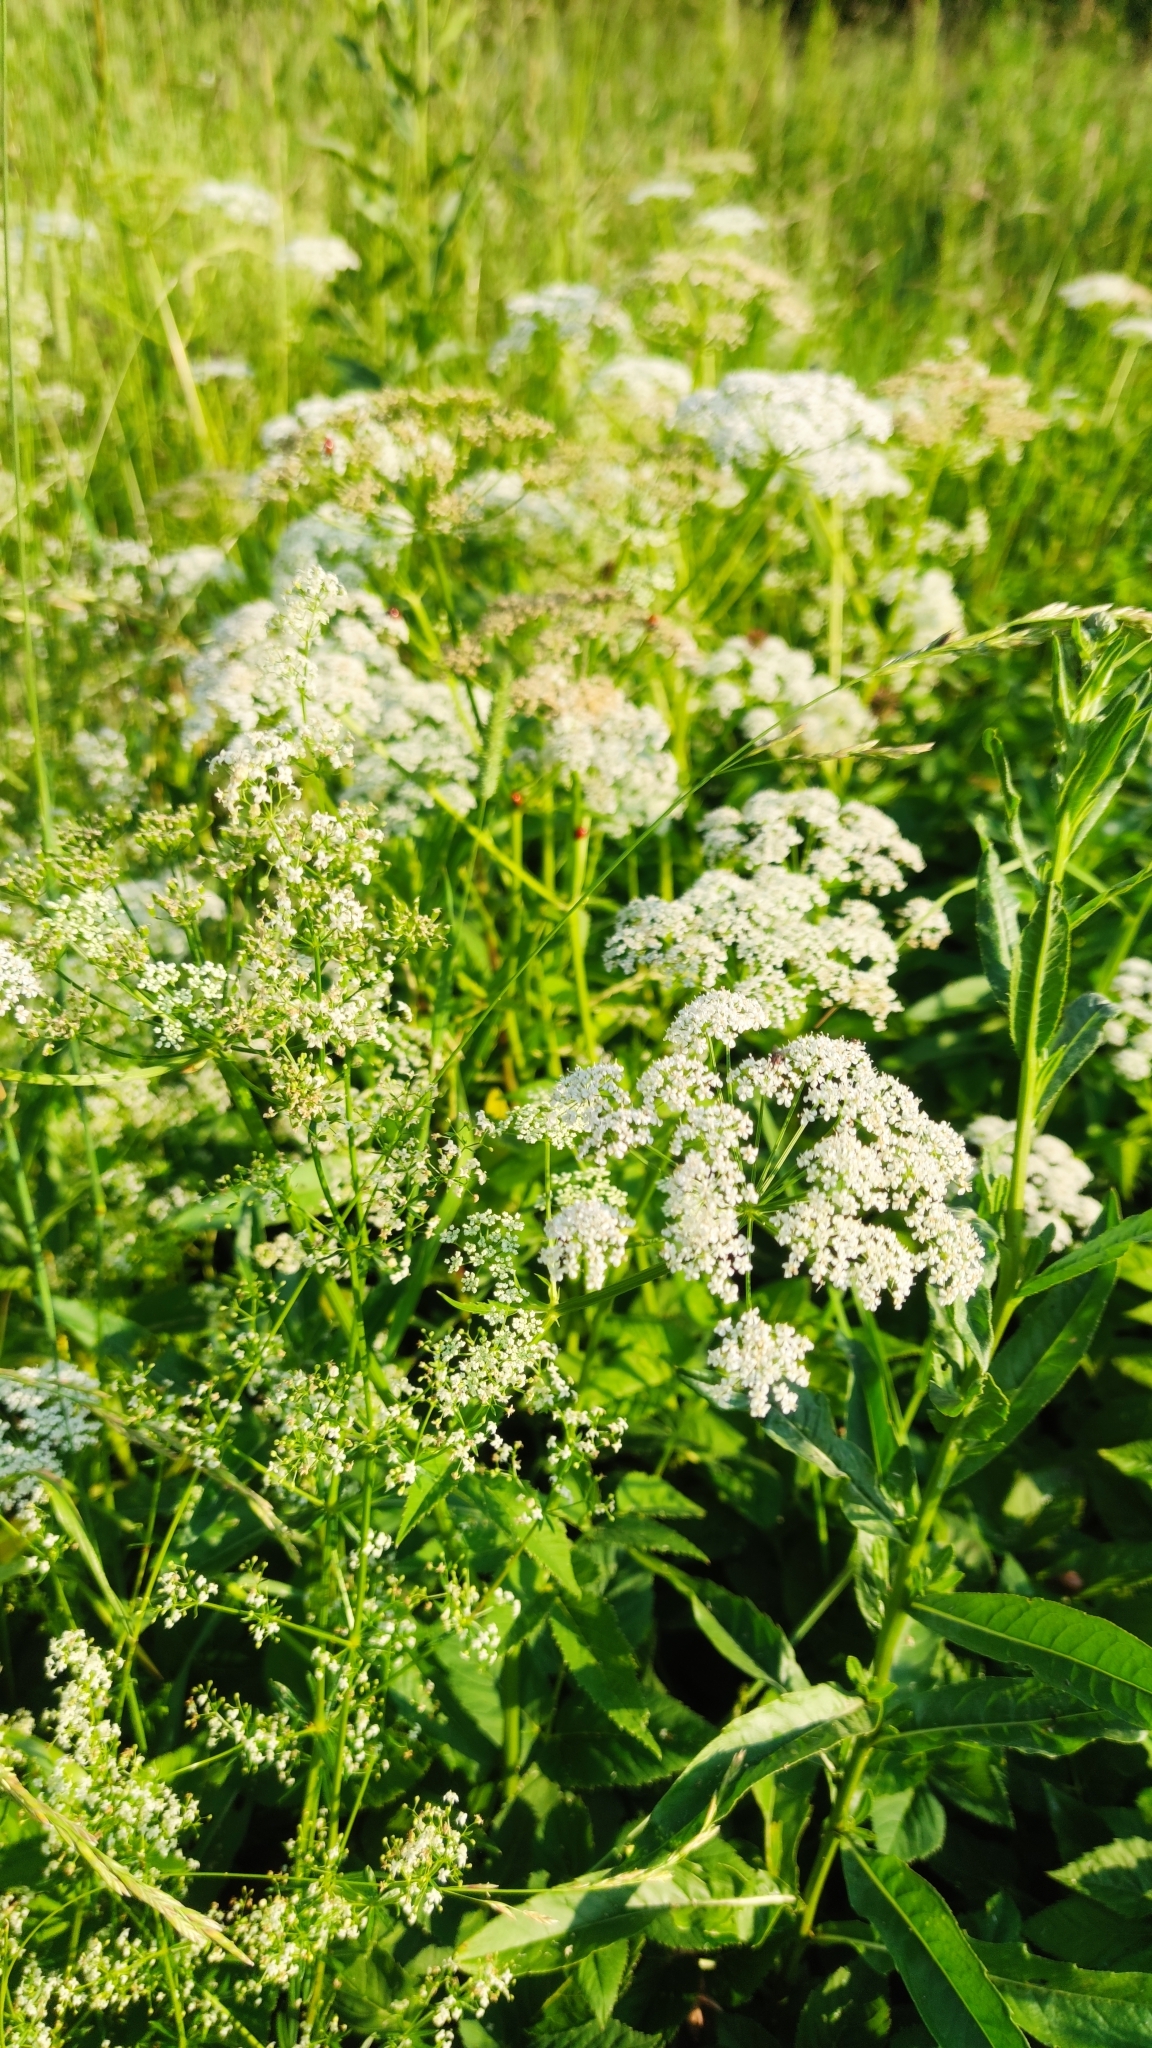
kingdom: Plantae
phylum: Tracheophyta
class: Magnoliopsida
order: Apiales
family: Apiaceae
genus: Aegopodium
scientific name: Aegopodium podagraria
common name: Ground-elder
